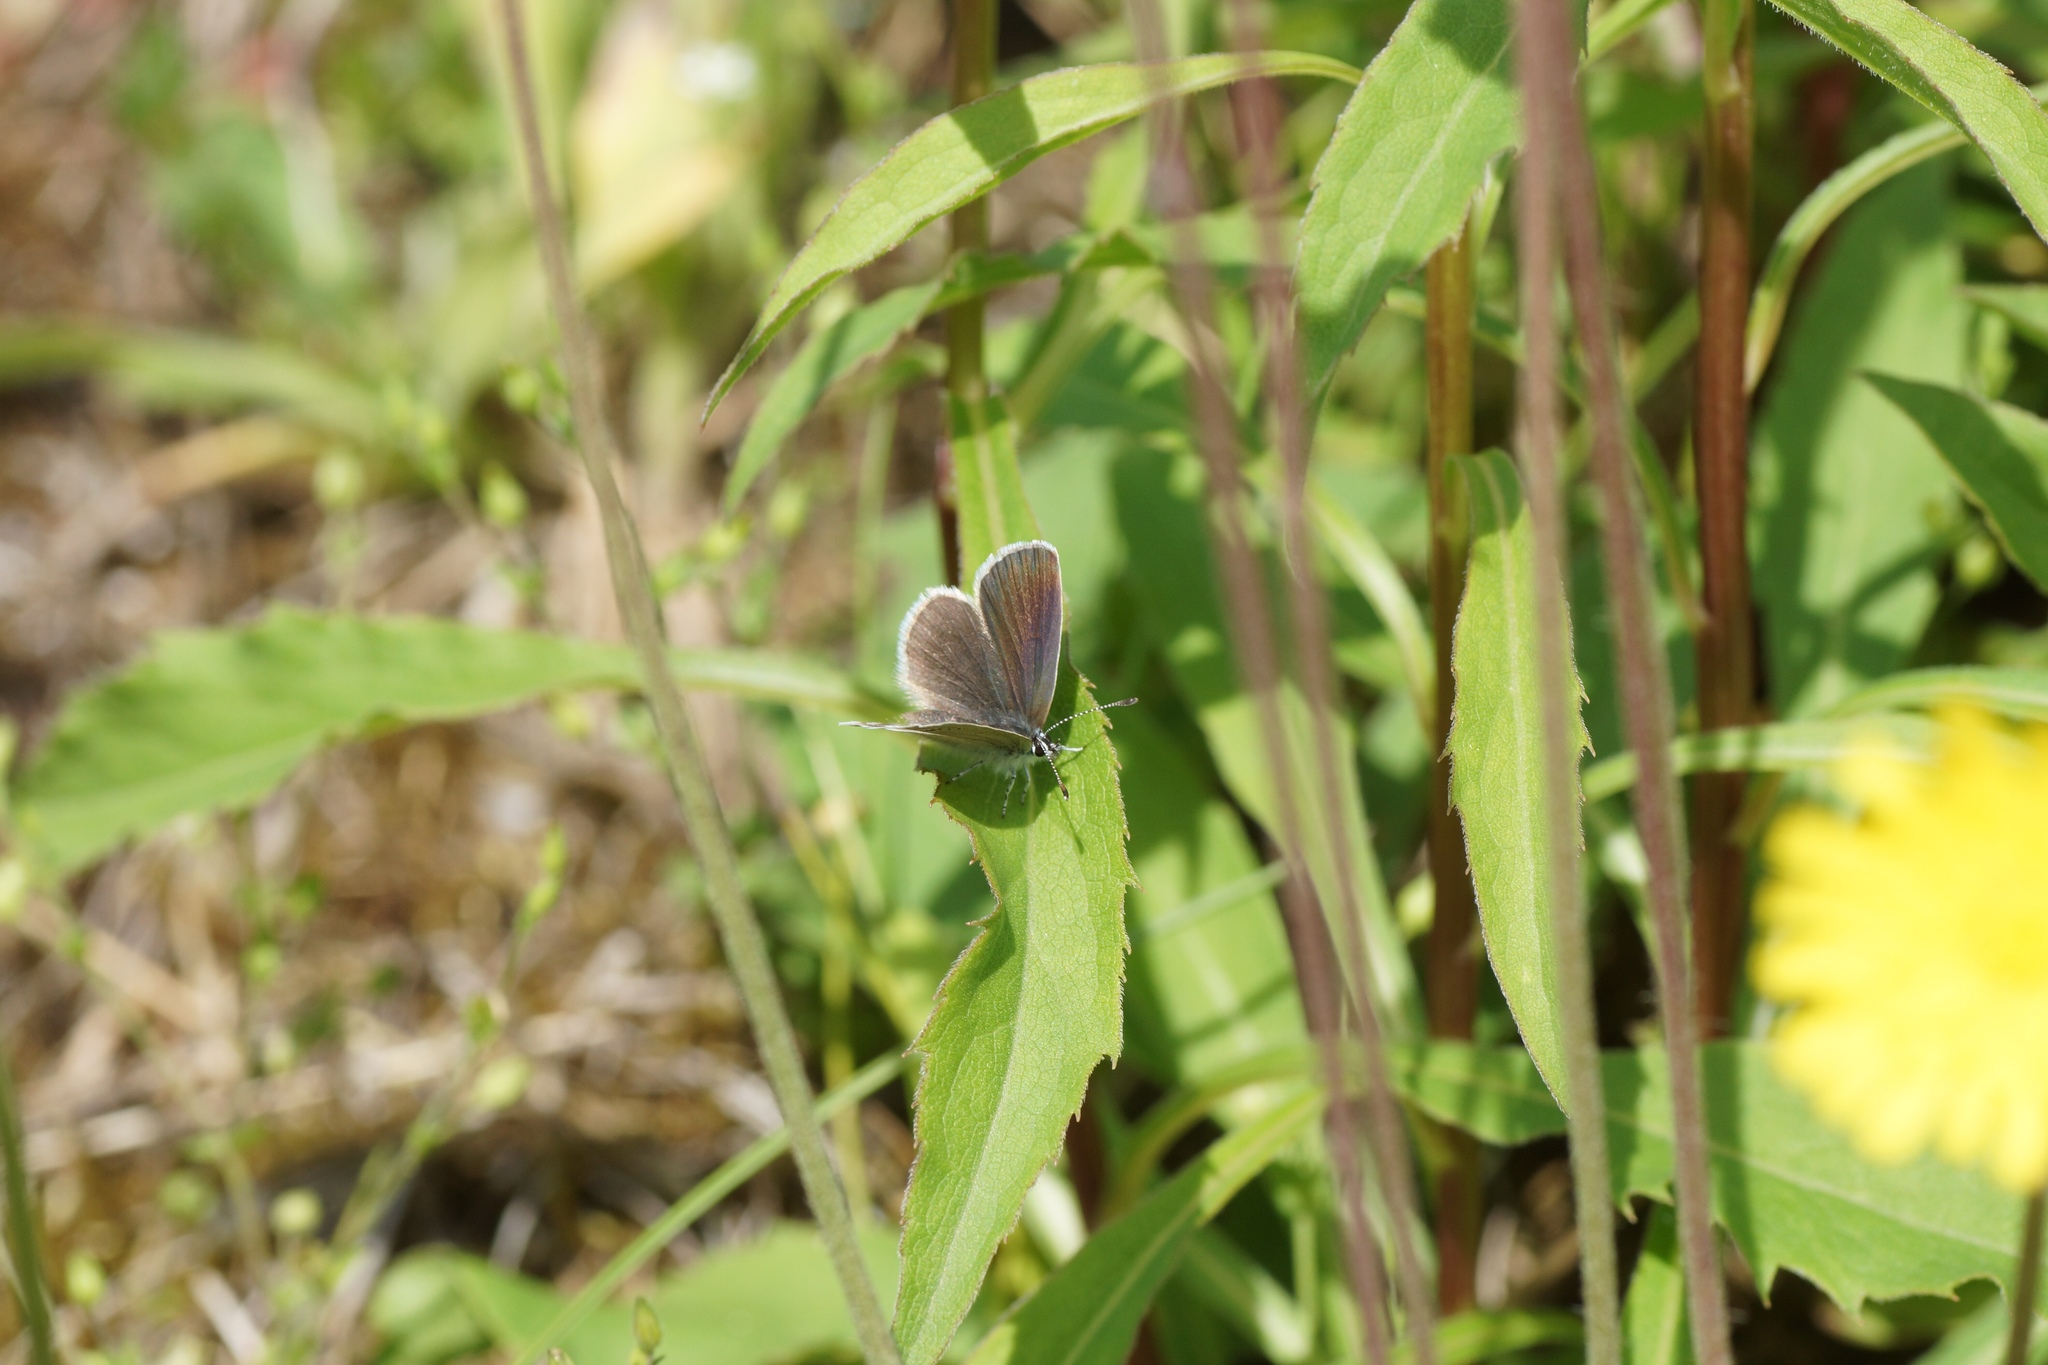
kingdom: Animalia
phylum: Arthropoda
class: Insecta
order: Lepidoptera
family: Lycaenidae
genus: Cupido
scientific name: Cupido minimus
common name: Small blue
